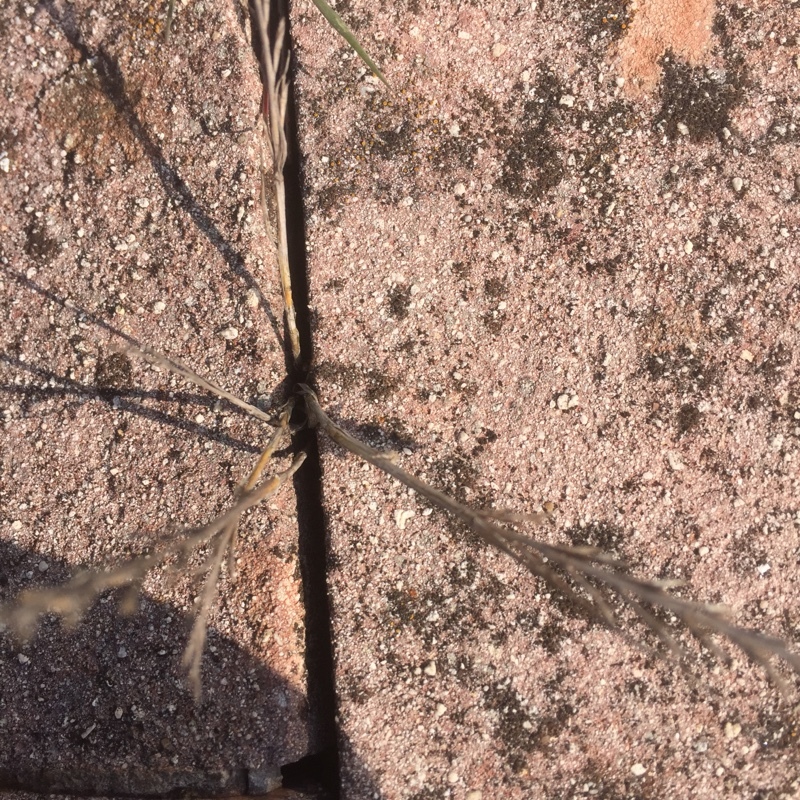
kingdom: Plantae
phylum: Tracheophyta
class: Liliopsida
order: Poales
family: Poaceae
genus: Catapodium
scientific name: Catapodium rigidum
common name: Fern-grass
